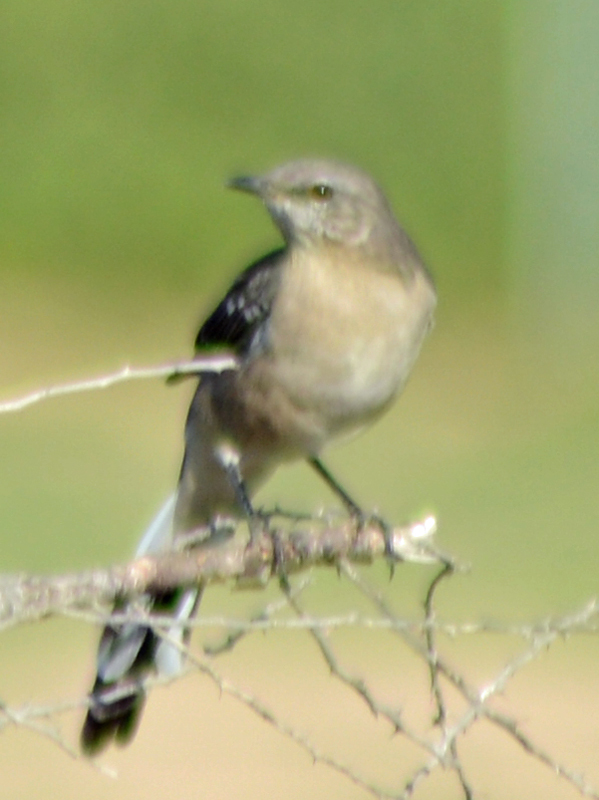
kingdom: Animalia
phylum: Chordata
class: Aves
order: Passeriformes
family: Mimidae
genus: Mimus
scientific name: Mimus polyglottos
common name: Northern mockingbird
